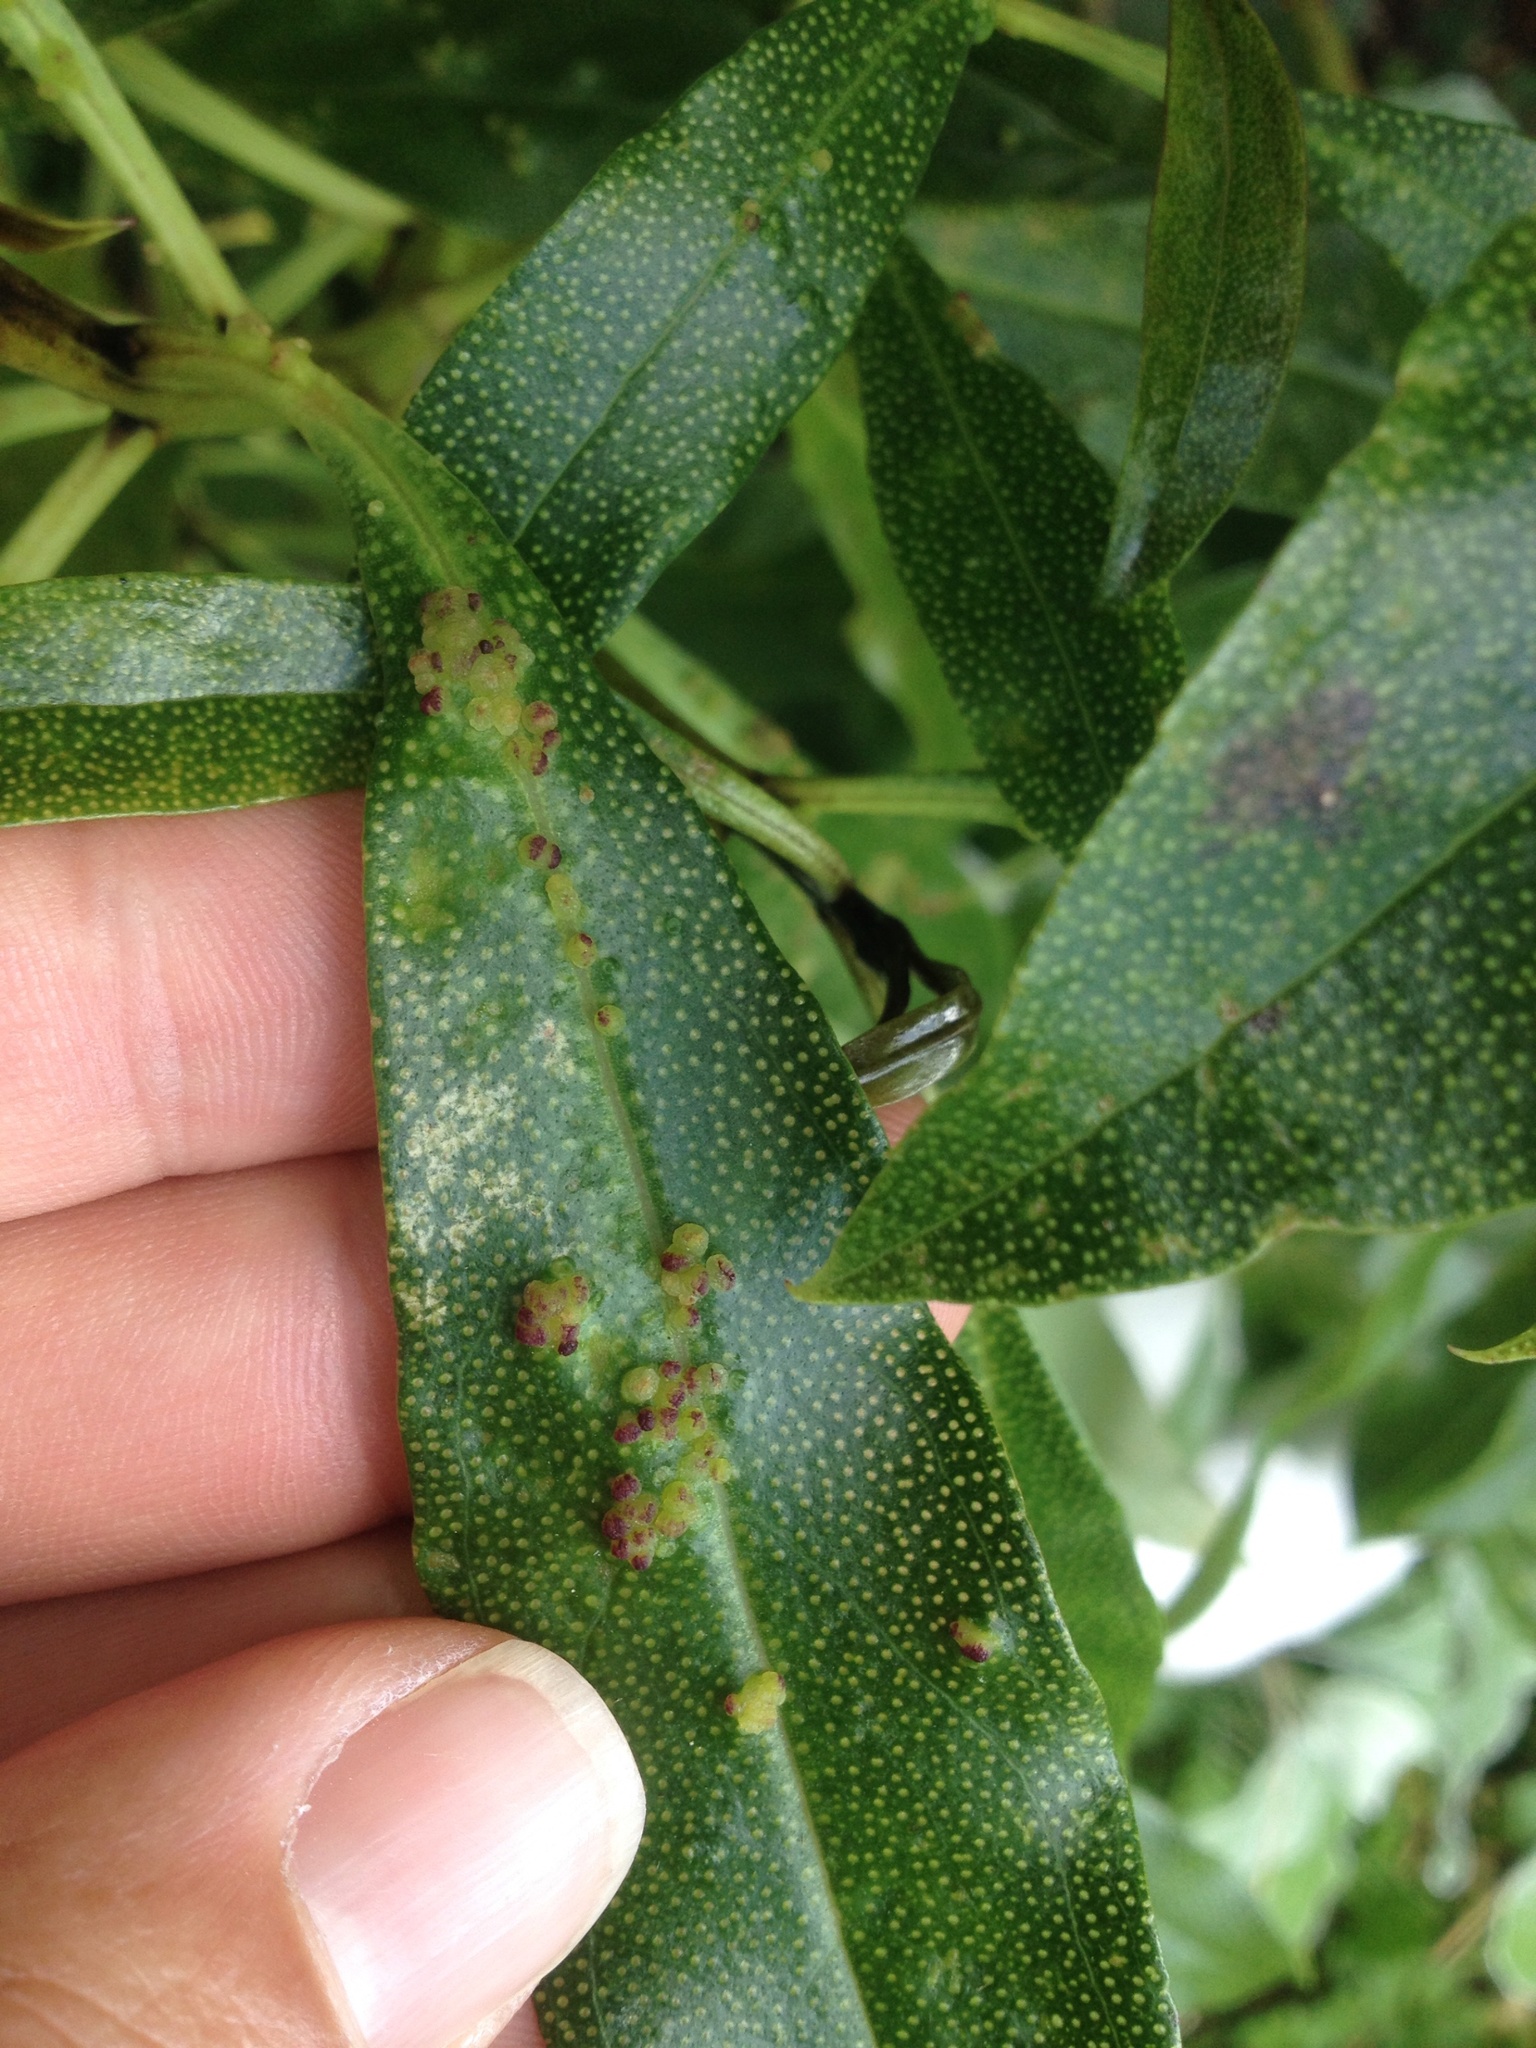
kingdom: Animalia
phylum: Arthropoda
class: Arachnida
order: Trombidiformes
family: Eriophyidae
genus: Aceria
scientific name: Aceria healyi
